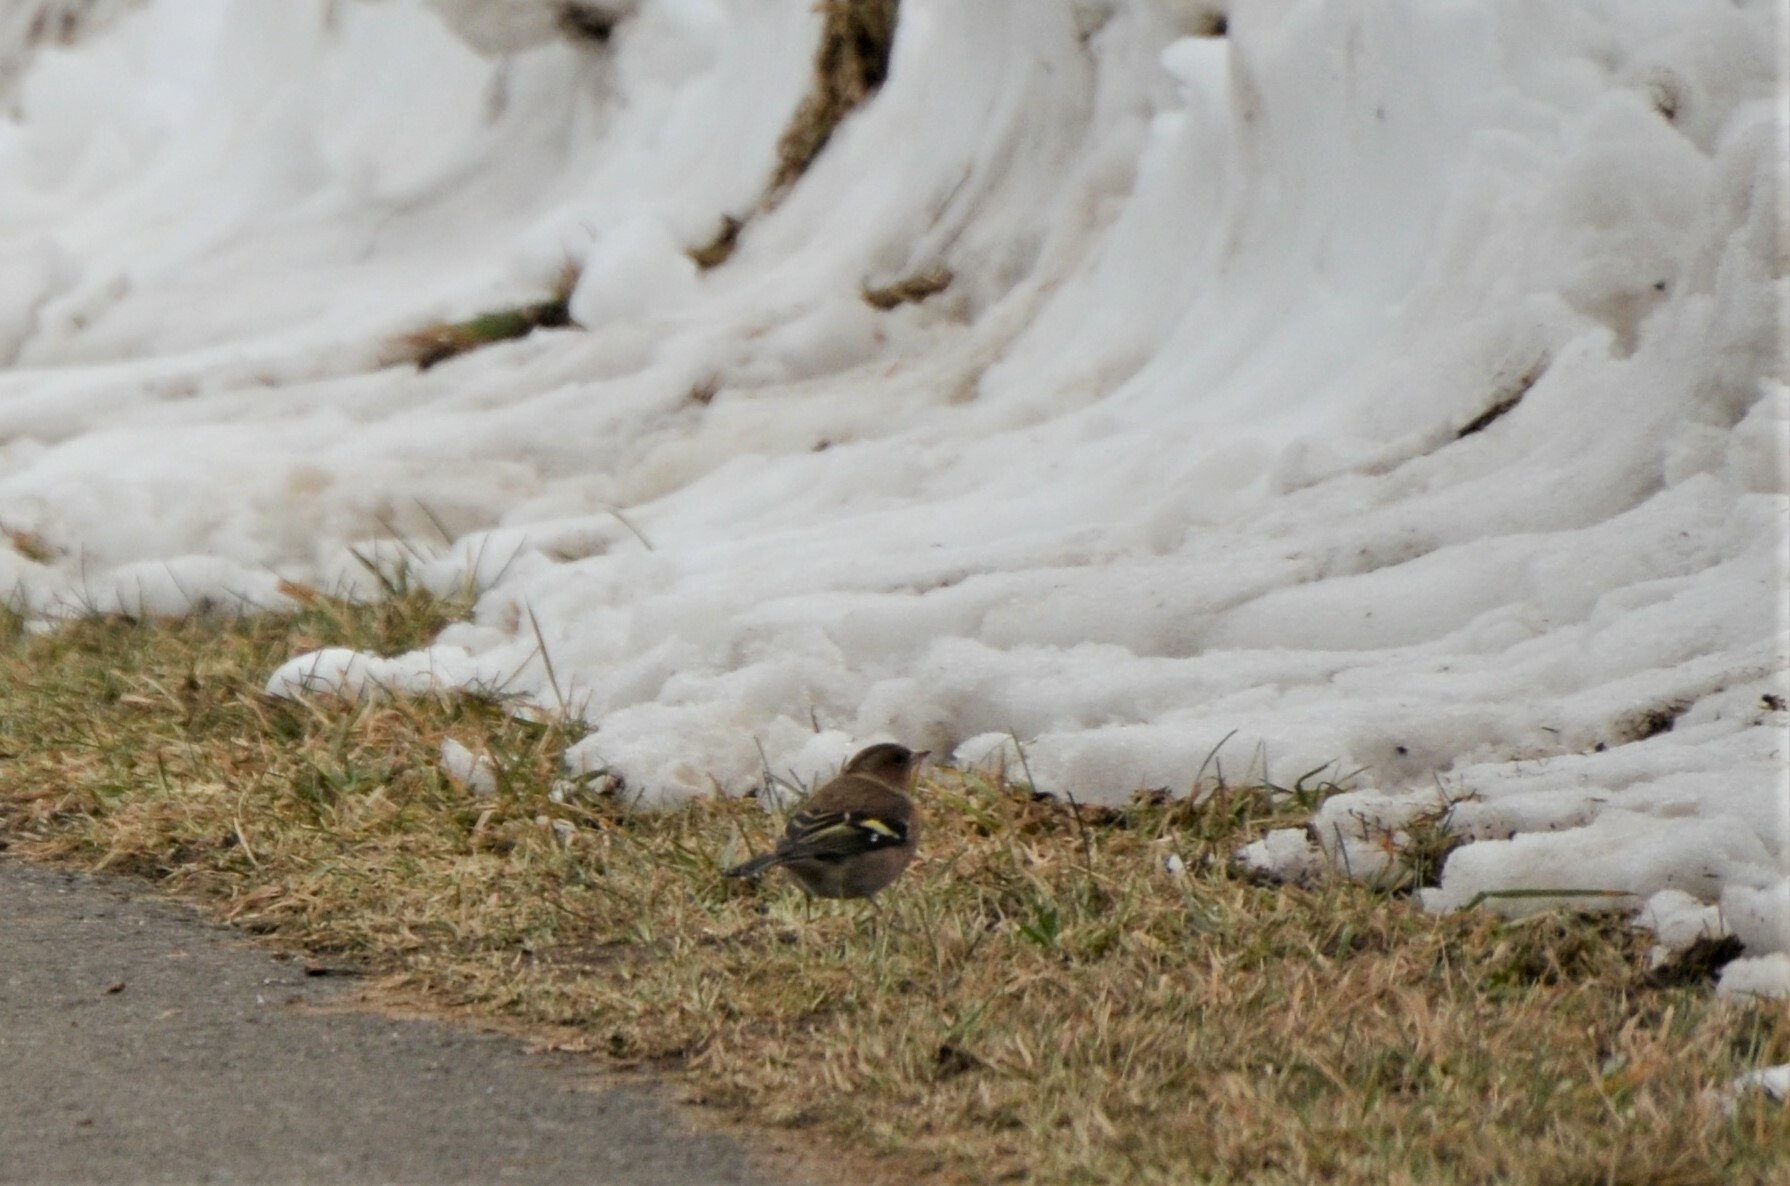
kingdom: Animalia
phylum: Chordata
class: Aves
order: Passeriformes
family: Fringillidae
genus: Fringilla
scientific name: Fringilla coelebs
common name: Common chaffinch
